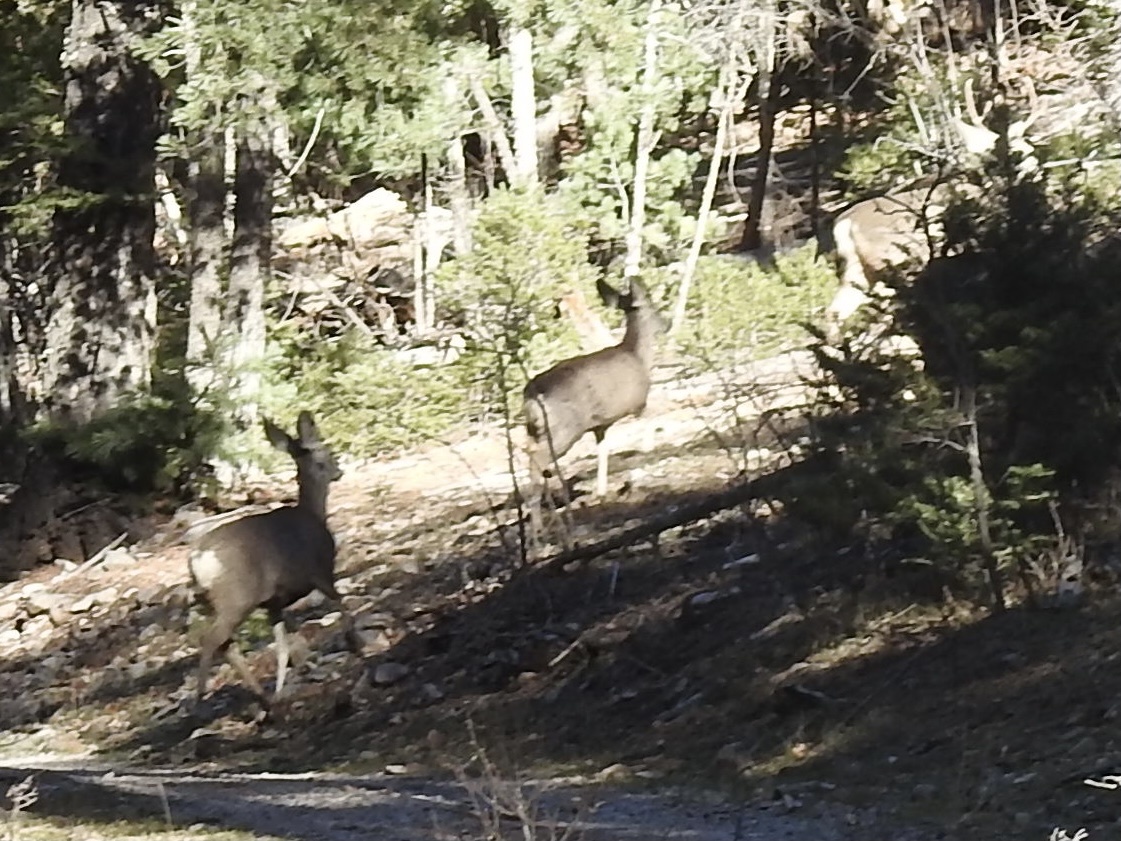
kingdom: Animalia
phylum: Chordata
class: Mammalia
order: Artiodactyla
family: Cervidae
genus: Odocoileus
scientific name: Odocoileus hemionus
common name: Mule deer
